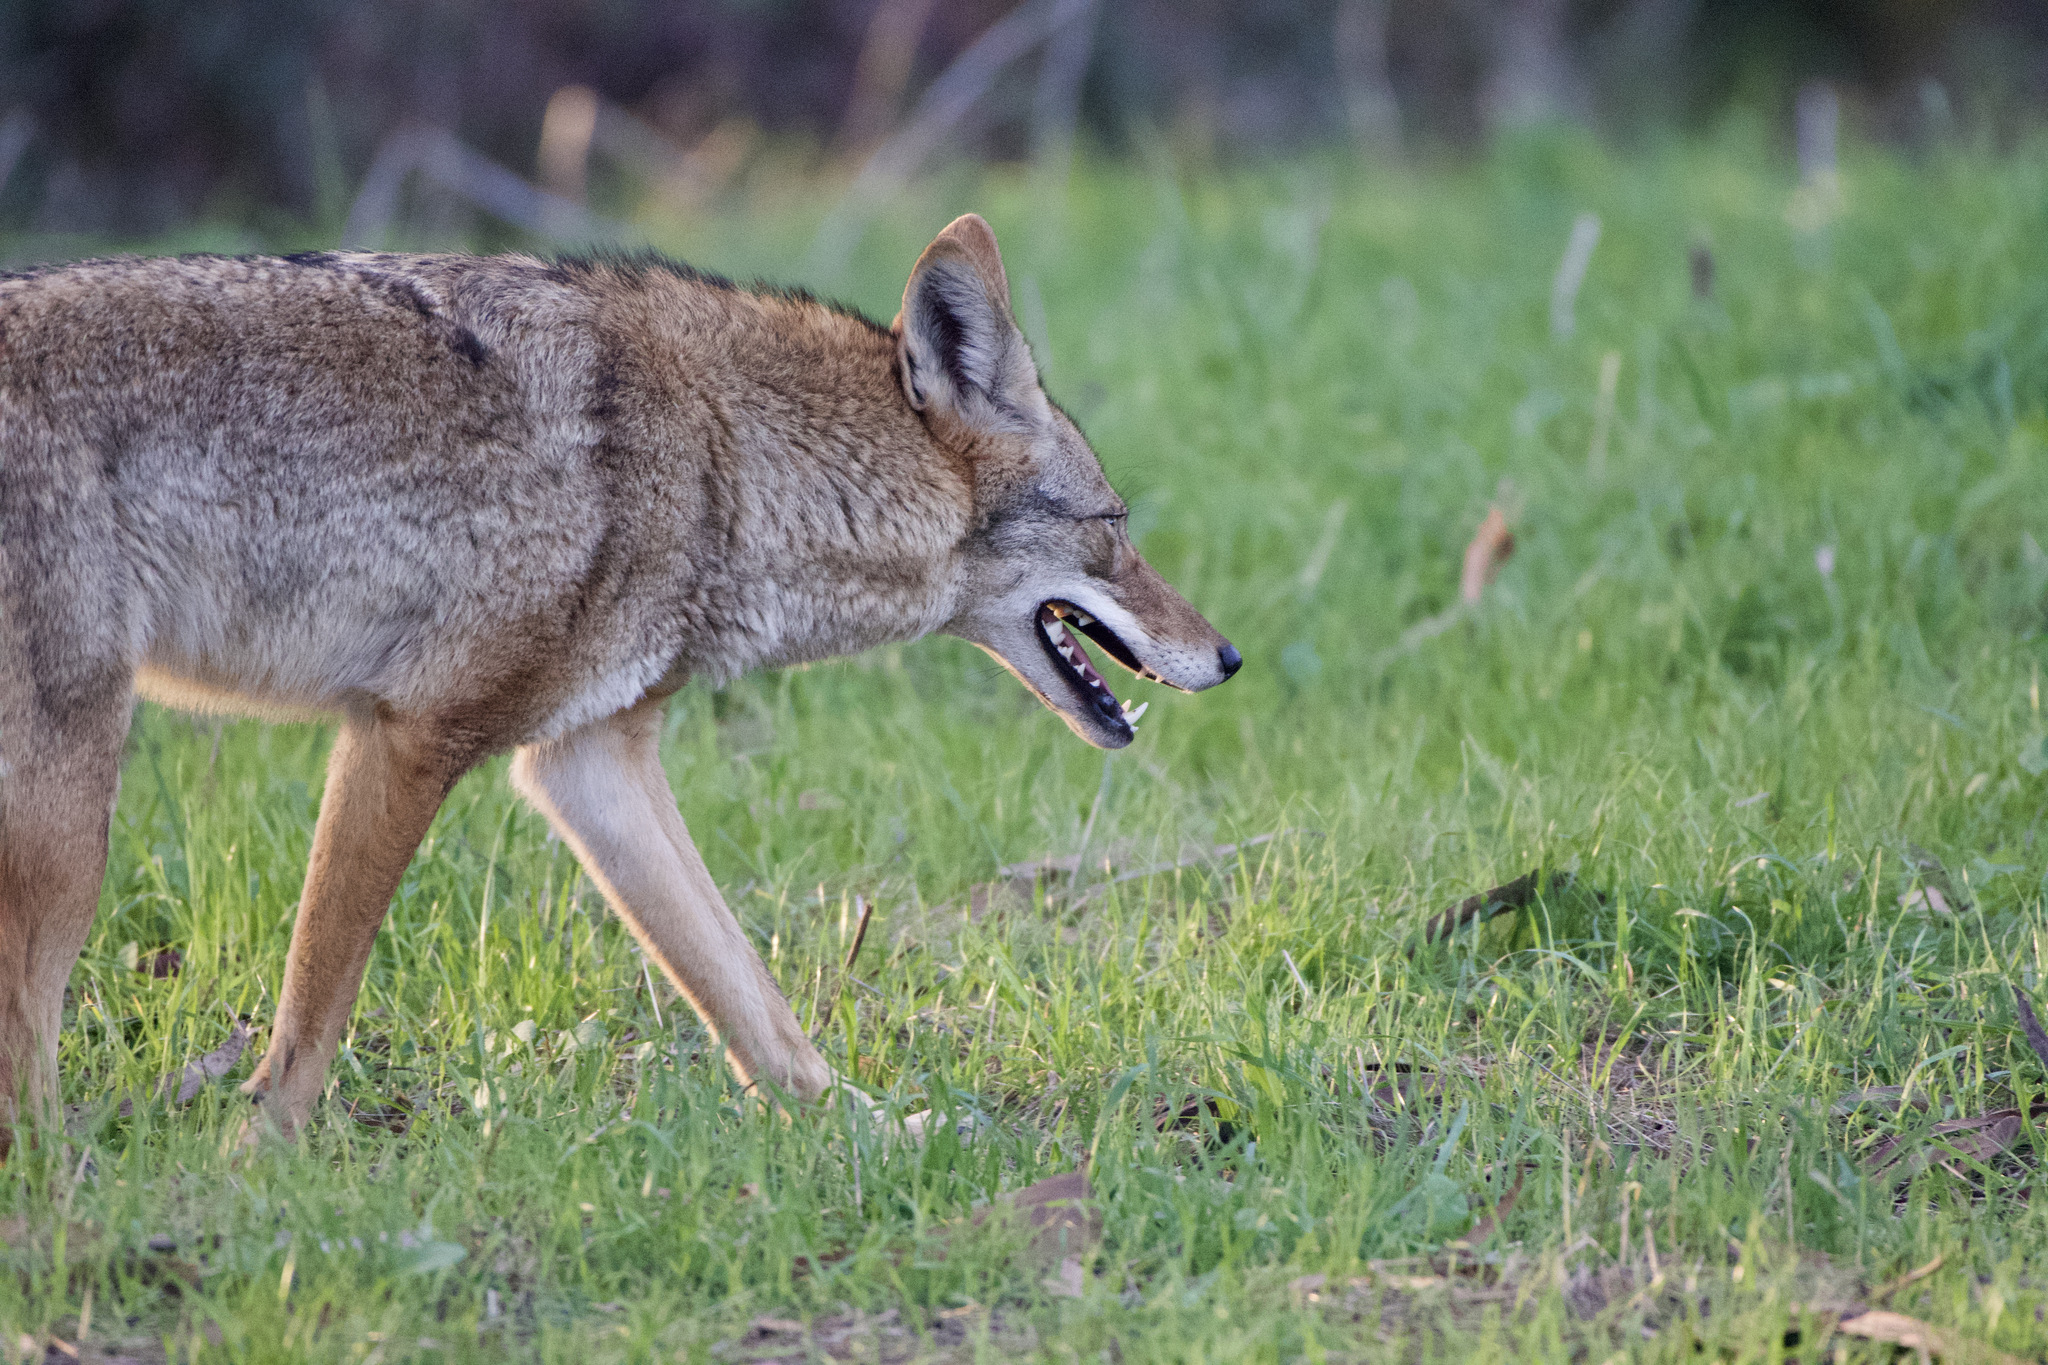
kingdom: Animalia
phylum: Chordata
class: Mammalia
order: Carnivora
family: Canidae
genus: Canis
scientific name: Canis latrans
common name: Coyote
